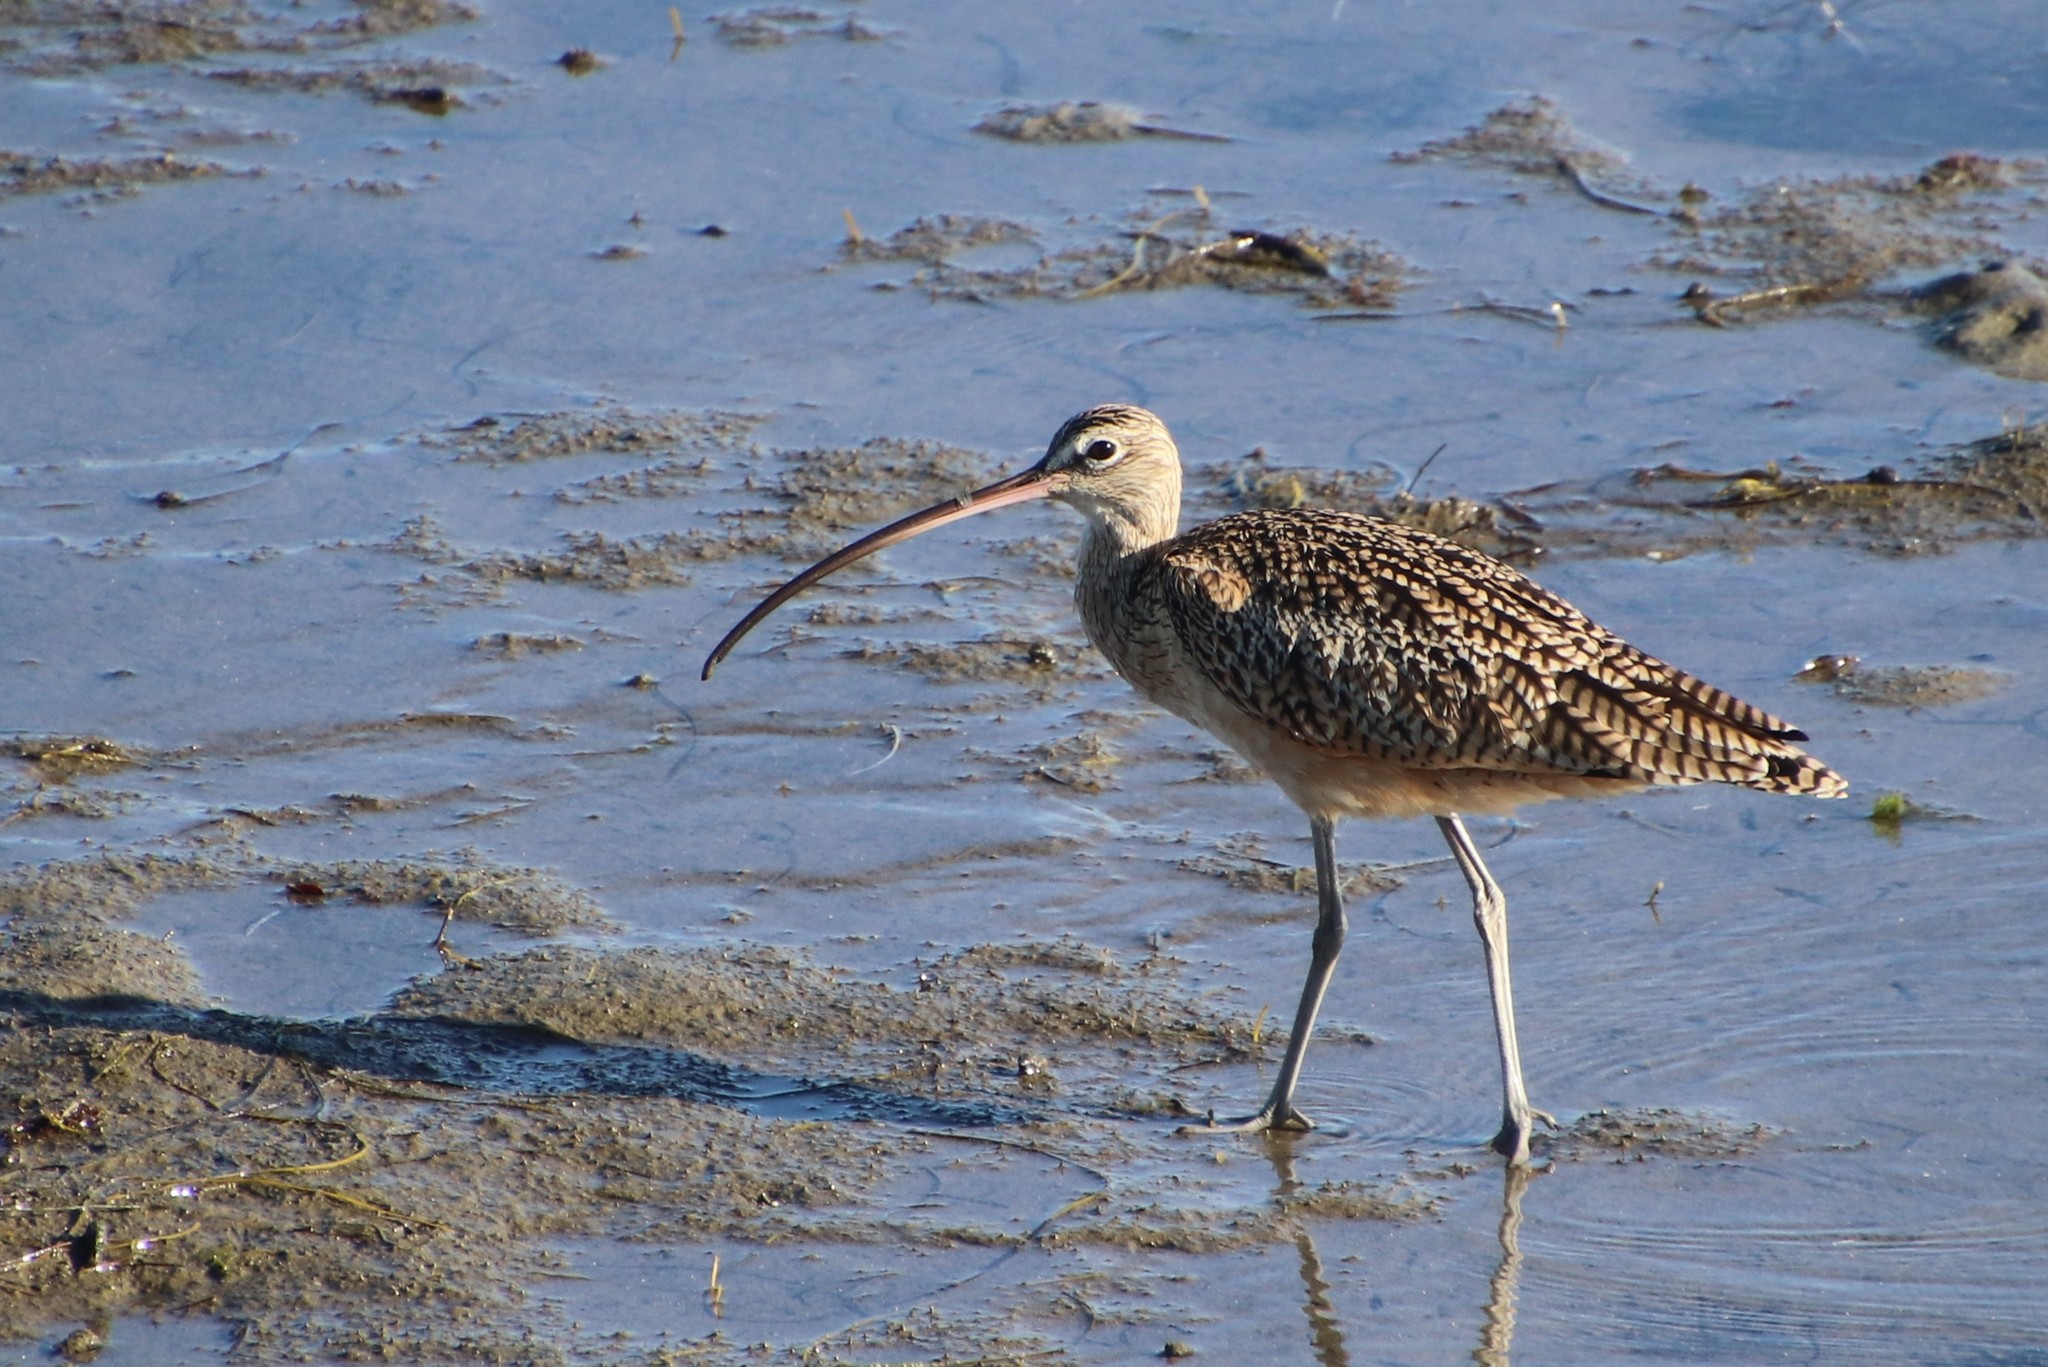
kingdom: Animalia
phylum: Chordata
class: Aves
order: Charadriiformes
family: Scolopacidae
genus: Numenius
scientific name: Numenius americanus
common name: Long-billed curlew
